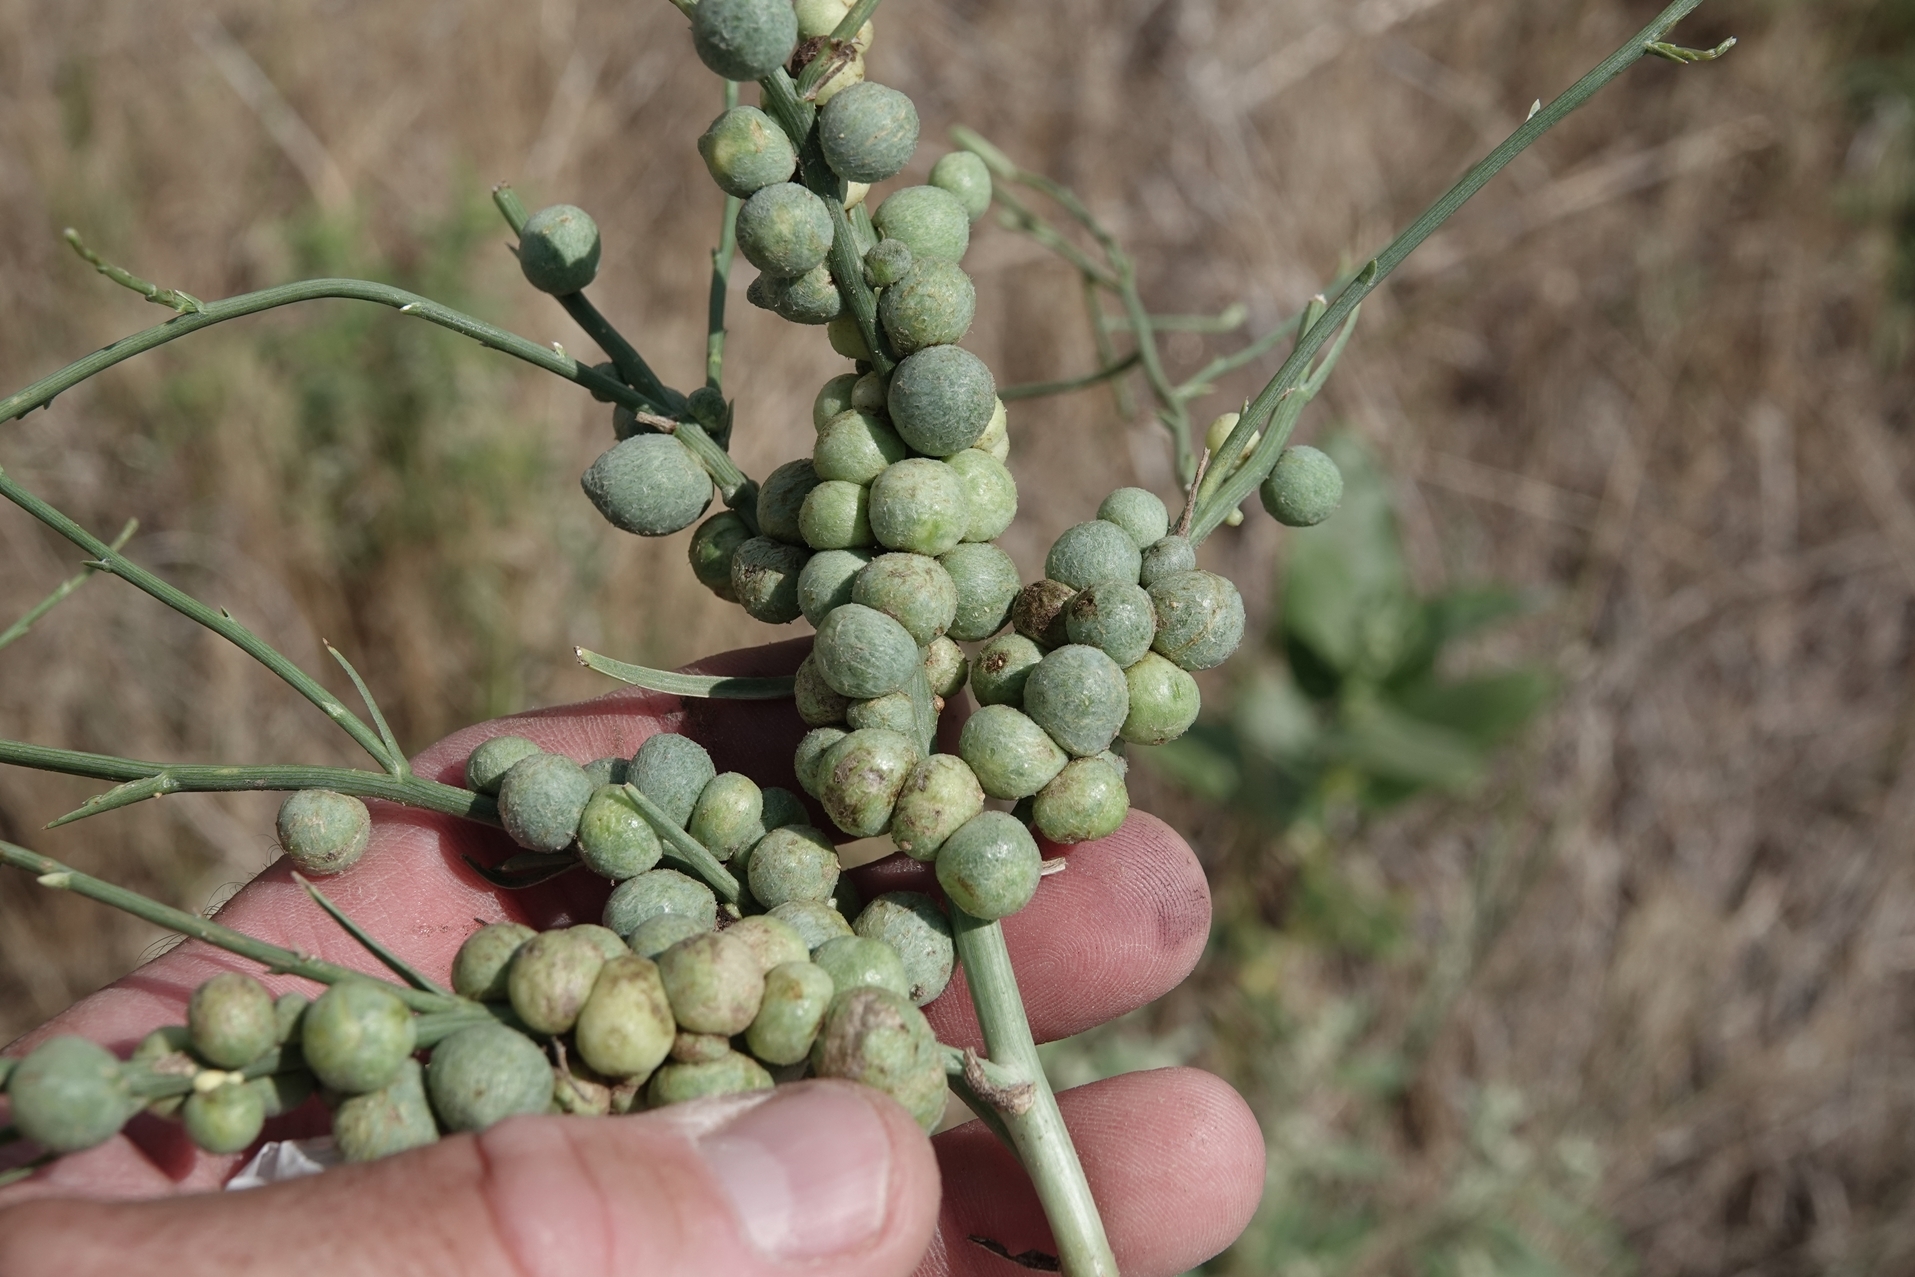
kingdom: Animalia
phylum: Arthropoda
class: Insecta
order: Hymenoptera
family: Cynipidae
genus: Antistrophus
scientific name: Antistrophus
